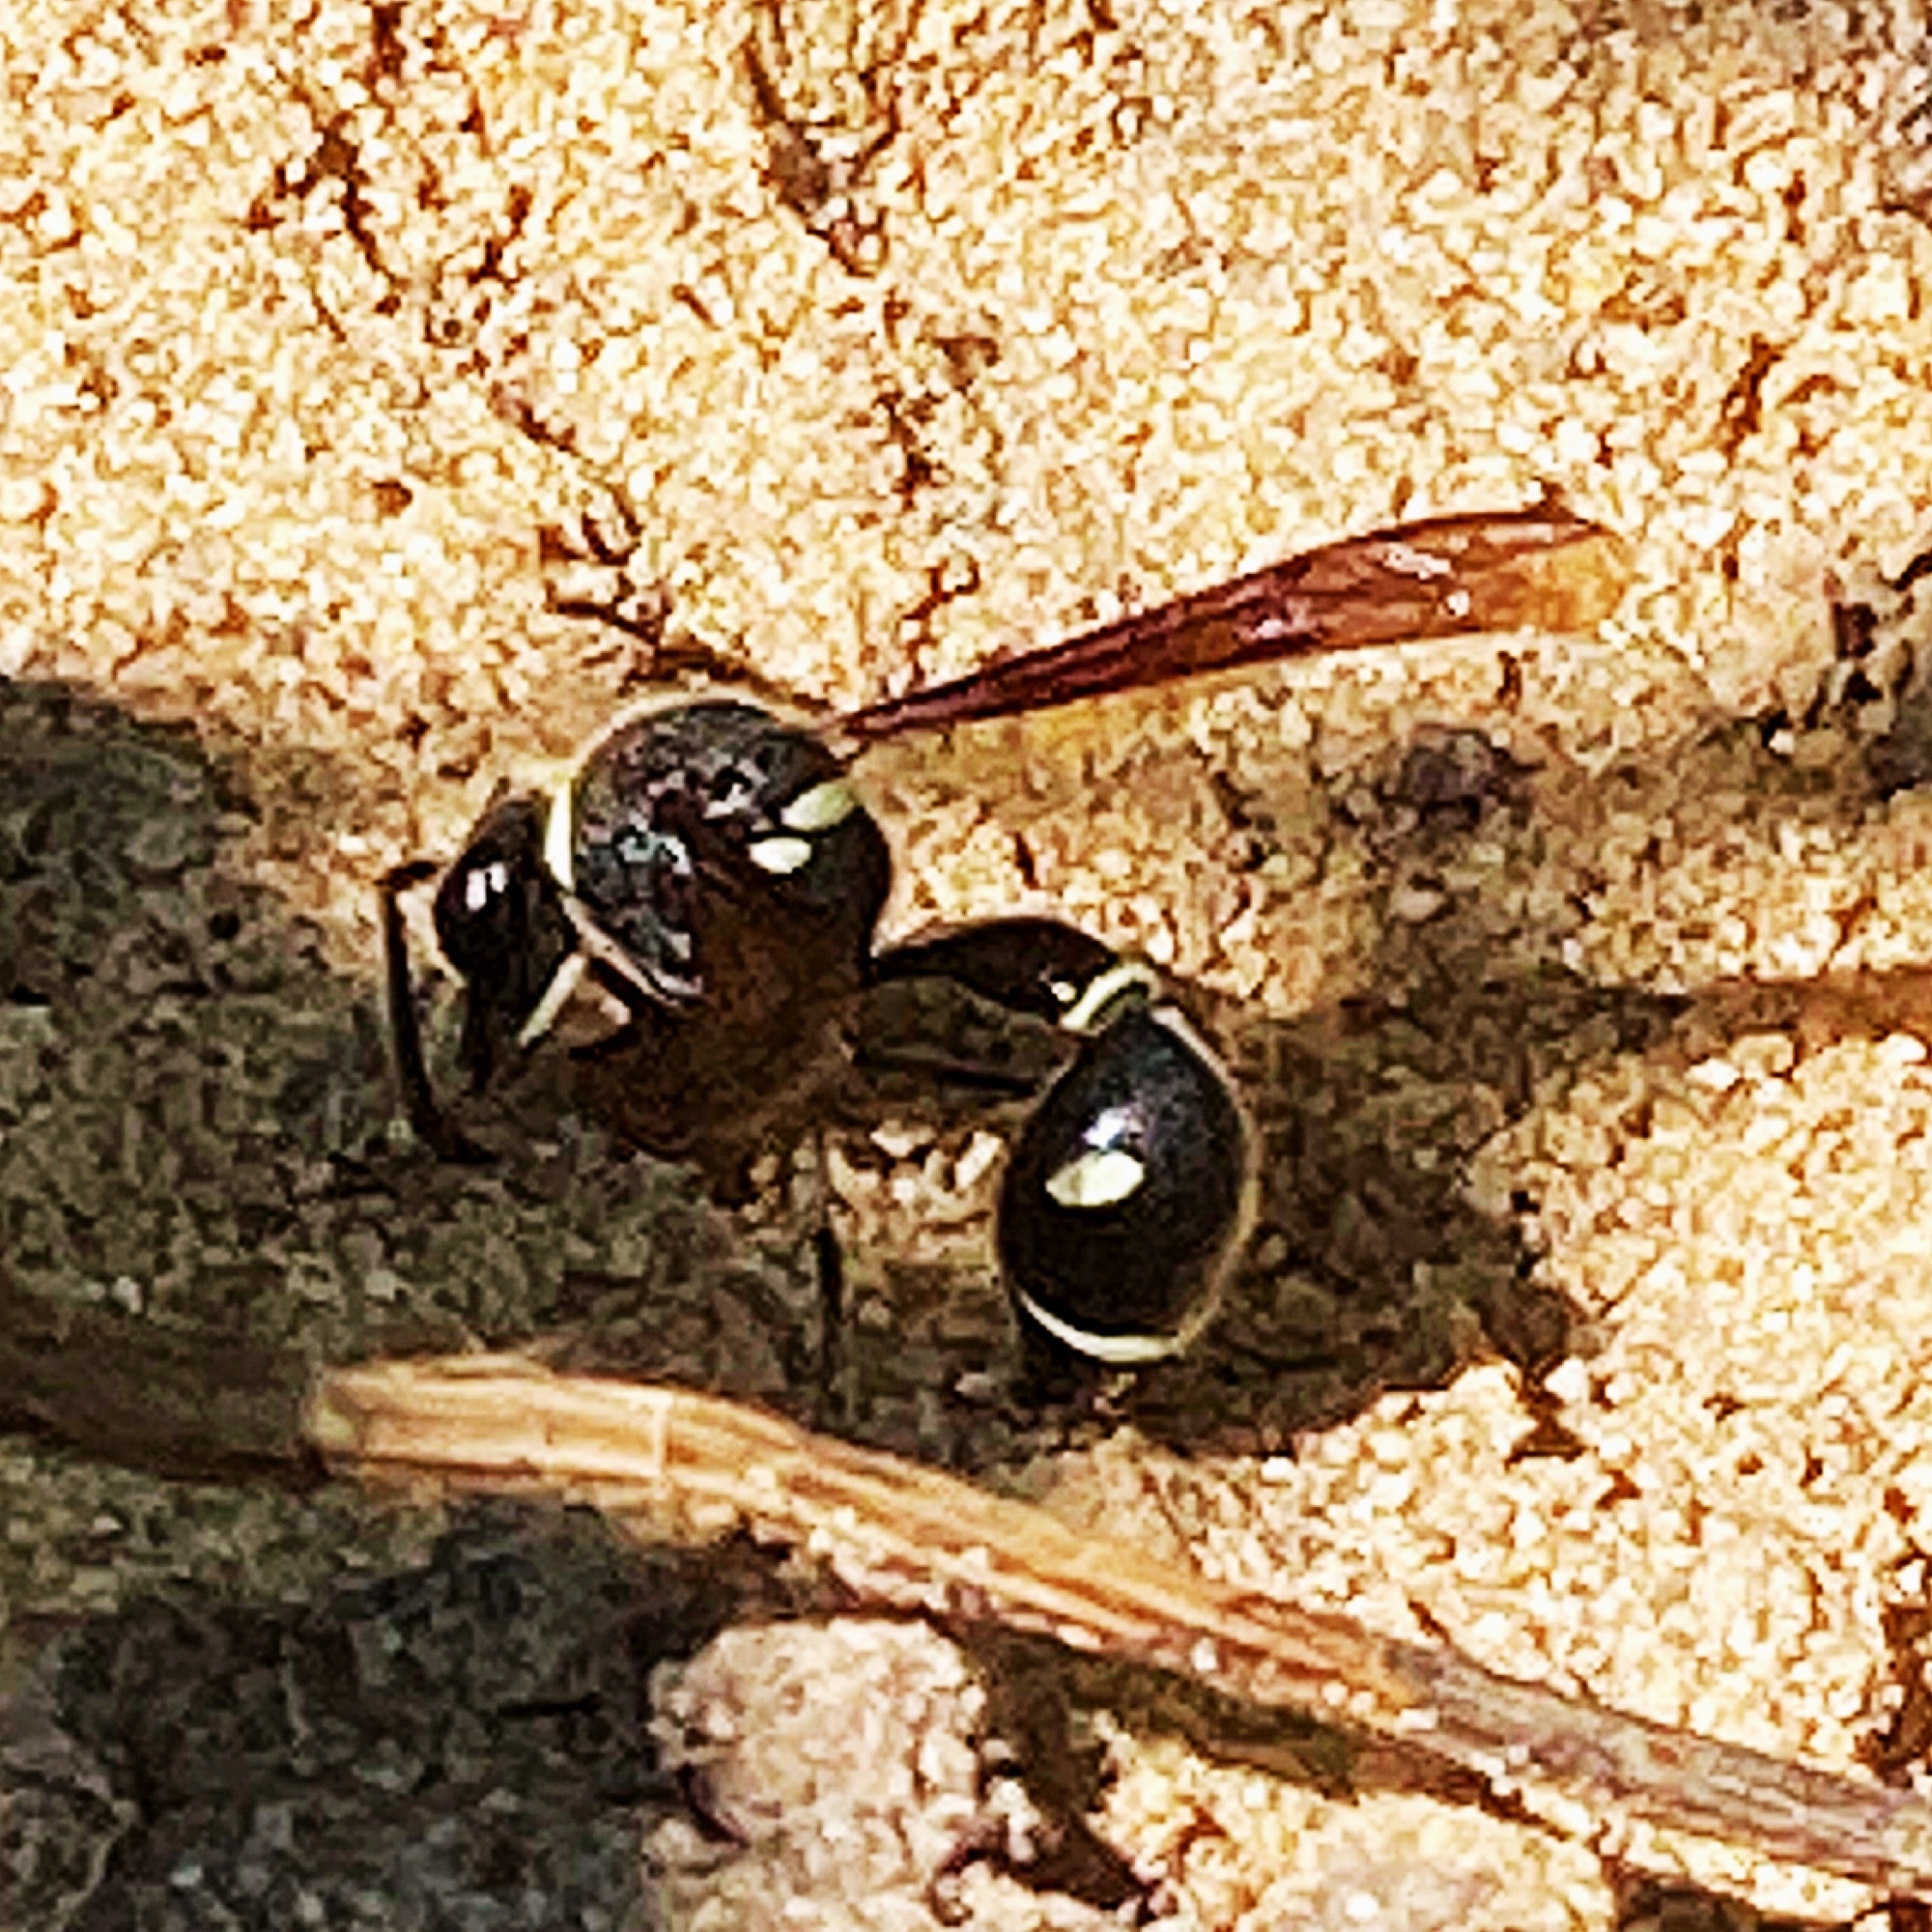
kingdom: Animalia
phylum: Arthropoda
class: Insecta
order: Hymenoptera
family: Vespidae
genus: Eumenes
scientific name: Eumenes fraternus
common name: Fraternal potter wasp
